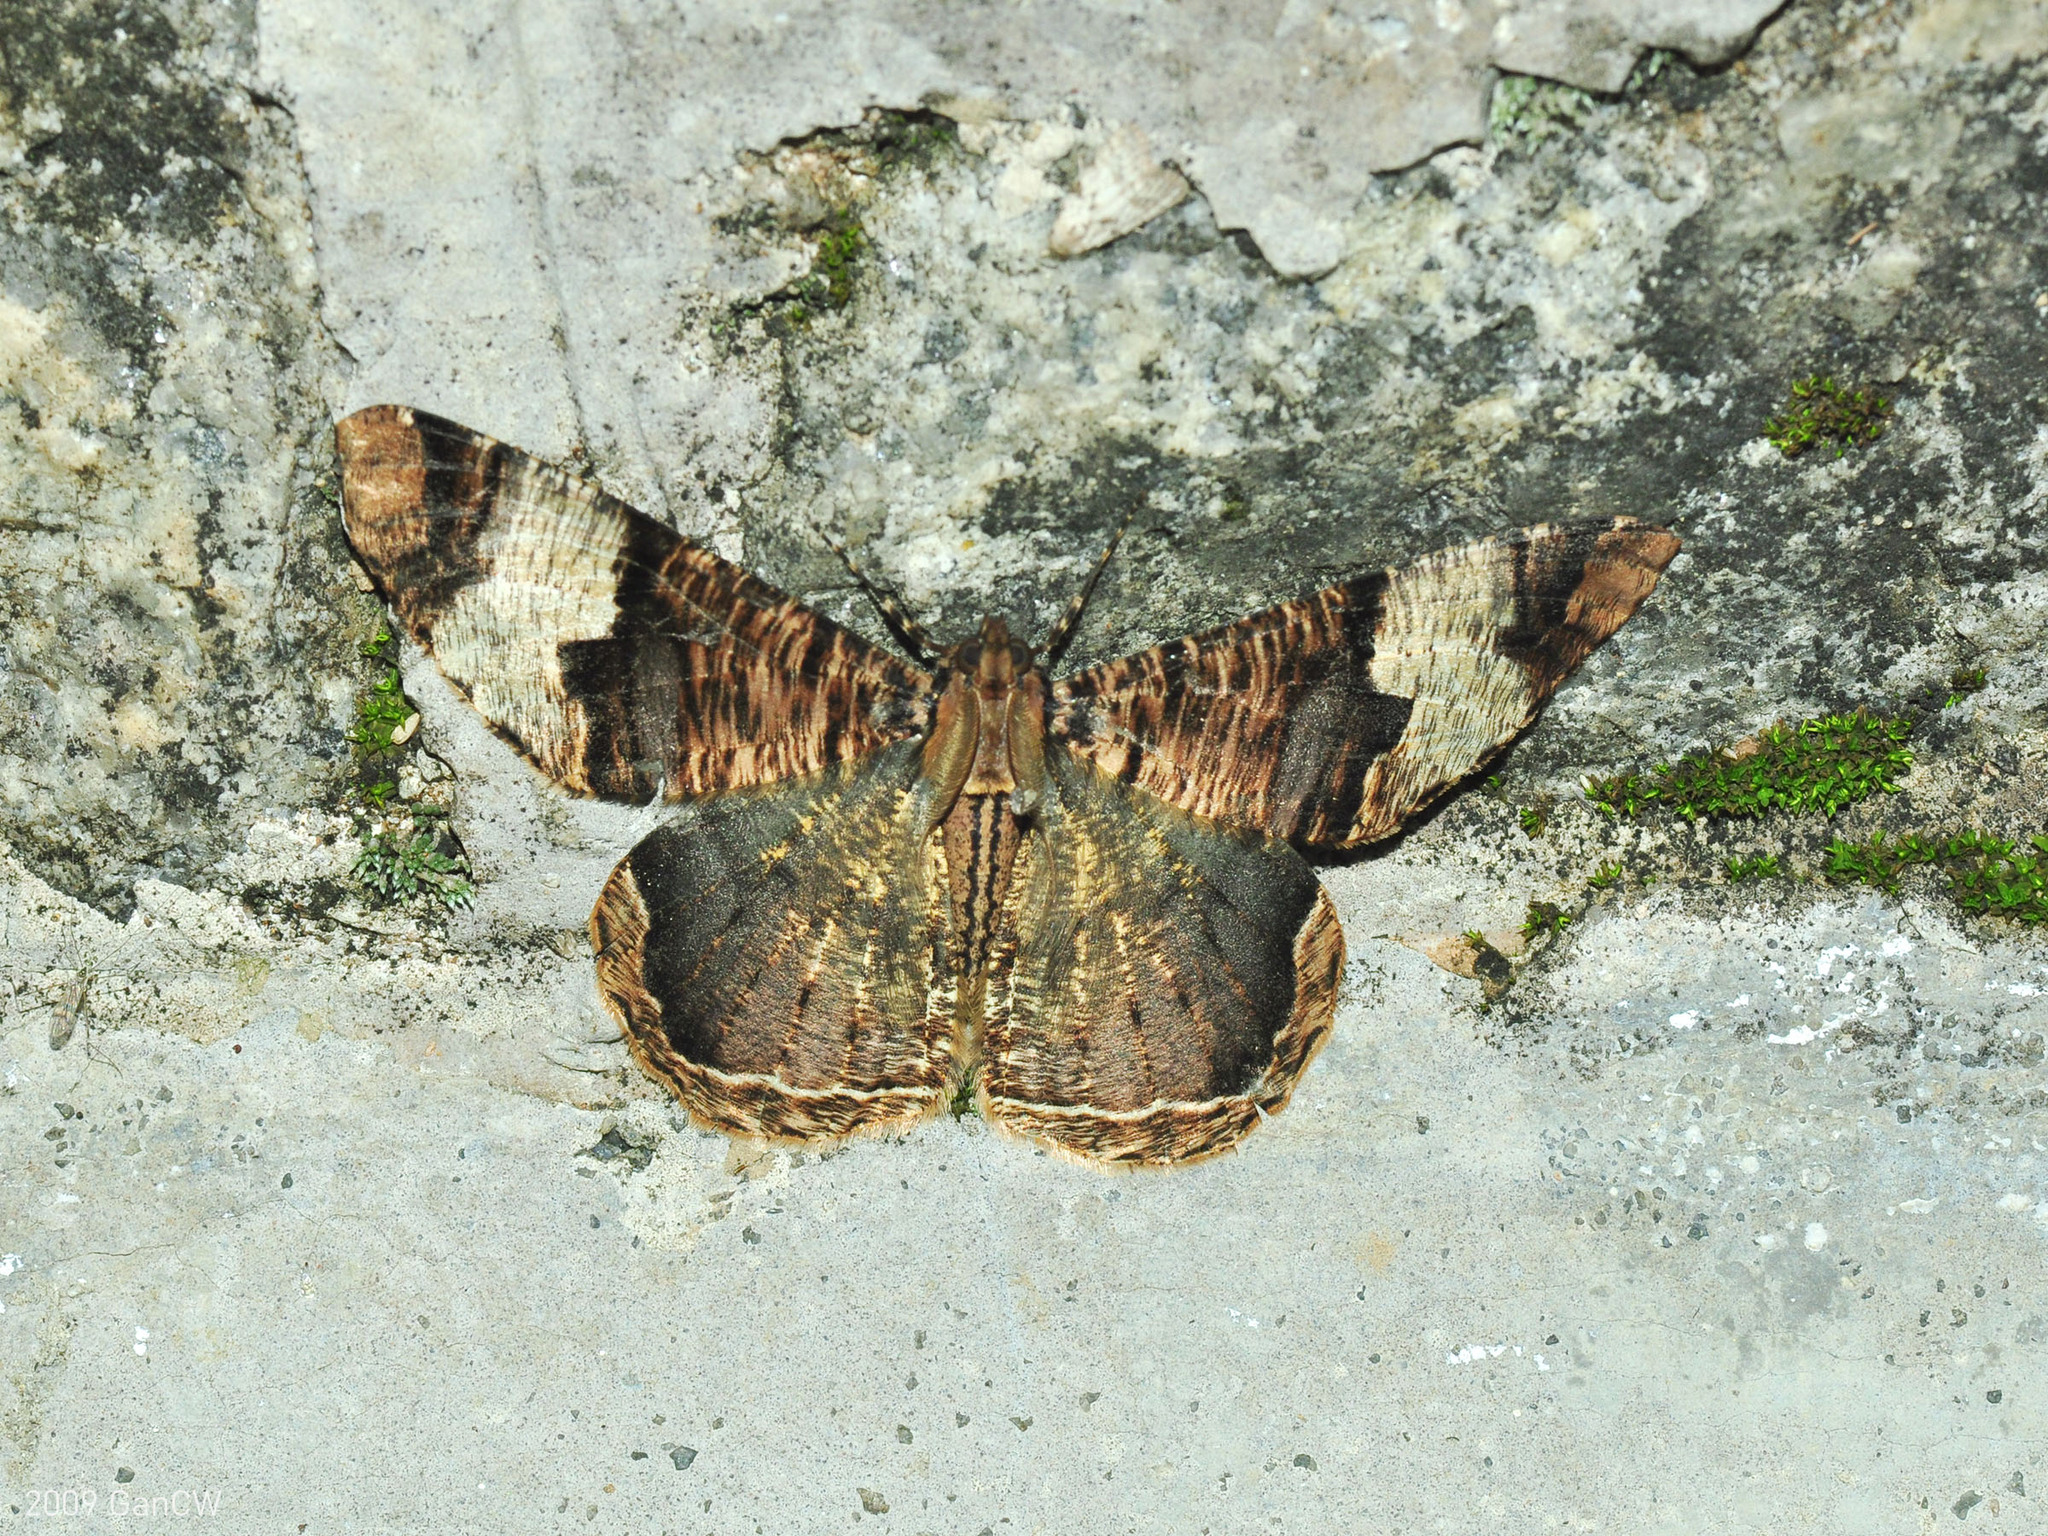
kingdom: Animalia
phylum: Arthropoda
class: Insecta
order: Lepidoptera
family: Geometridae
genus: Xandrames
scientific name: Xandrames latiferaria
